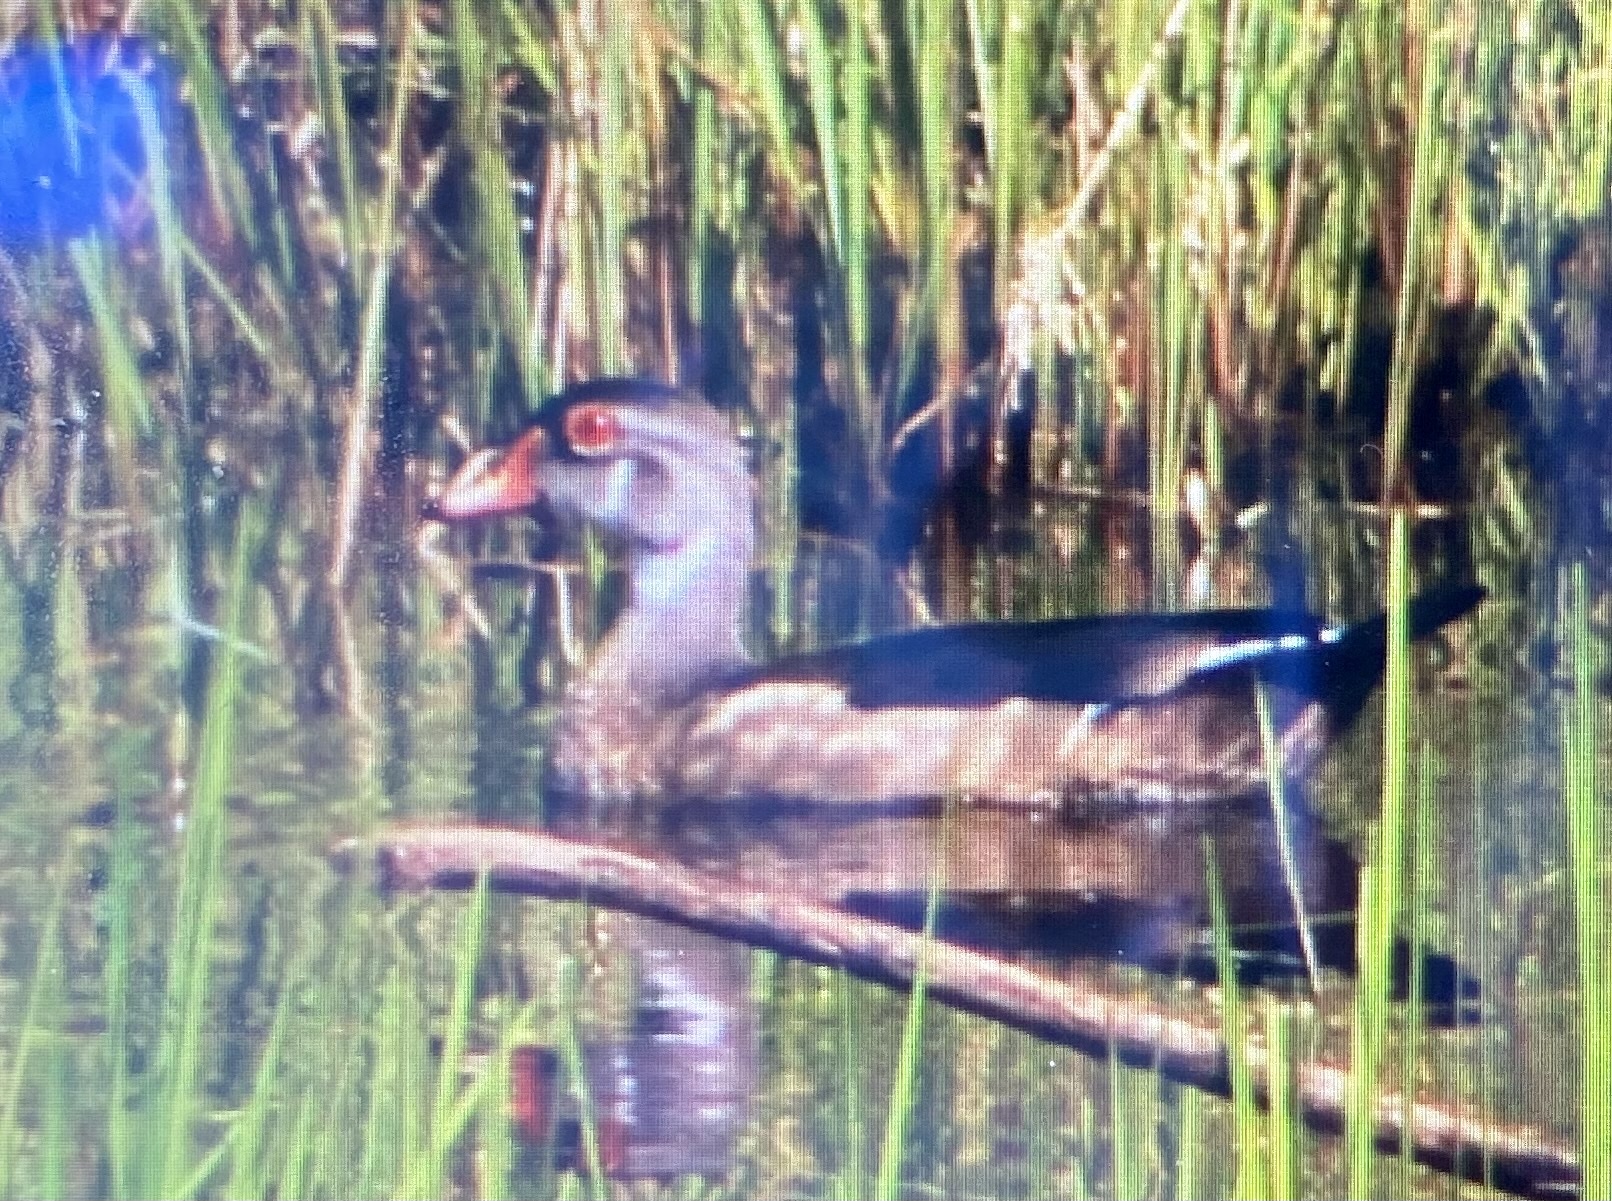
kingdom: Animalia
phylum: Chordata
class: Aves
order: Anseriformes
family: Anatidae
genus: Aix
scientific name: Aix sponsa
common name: Wood duck
